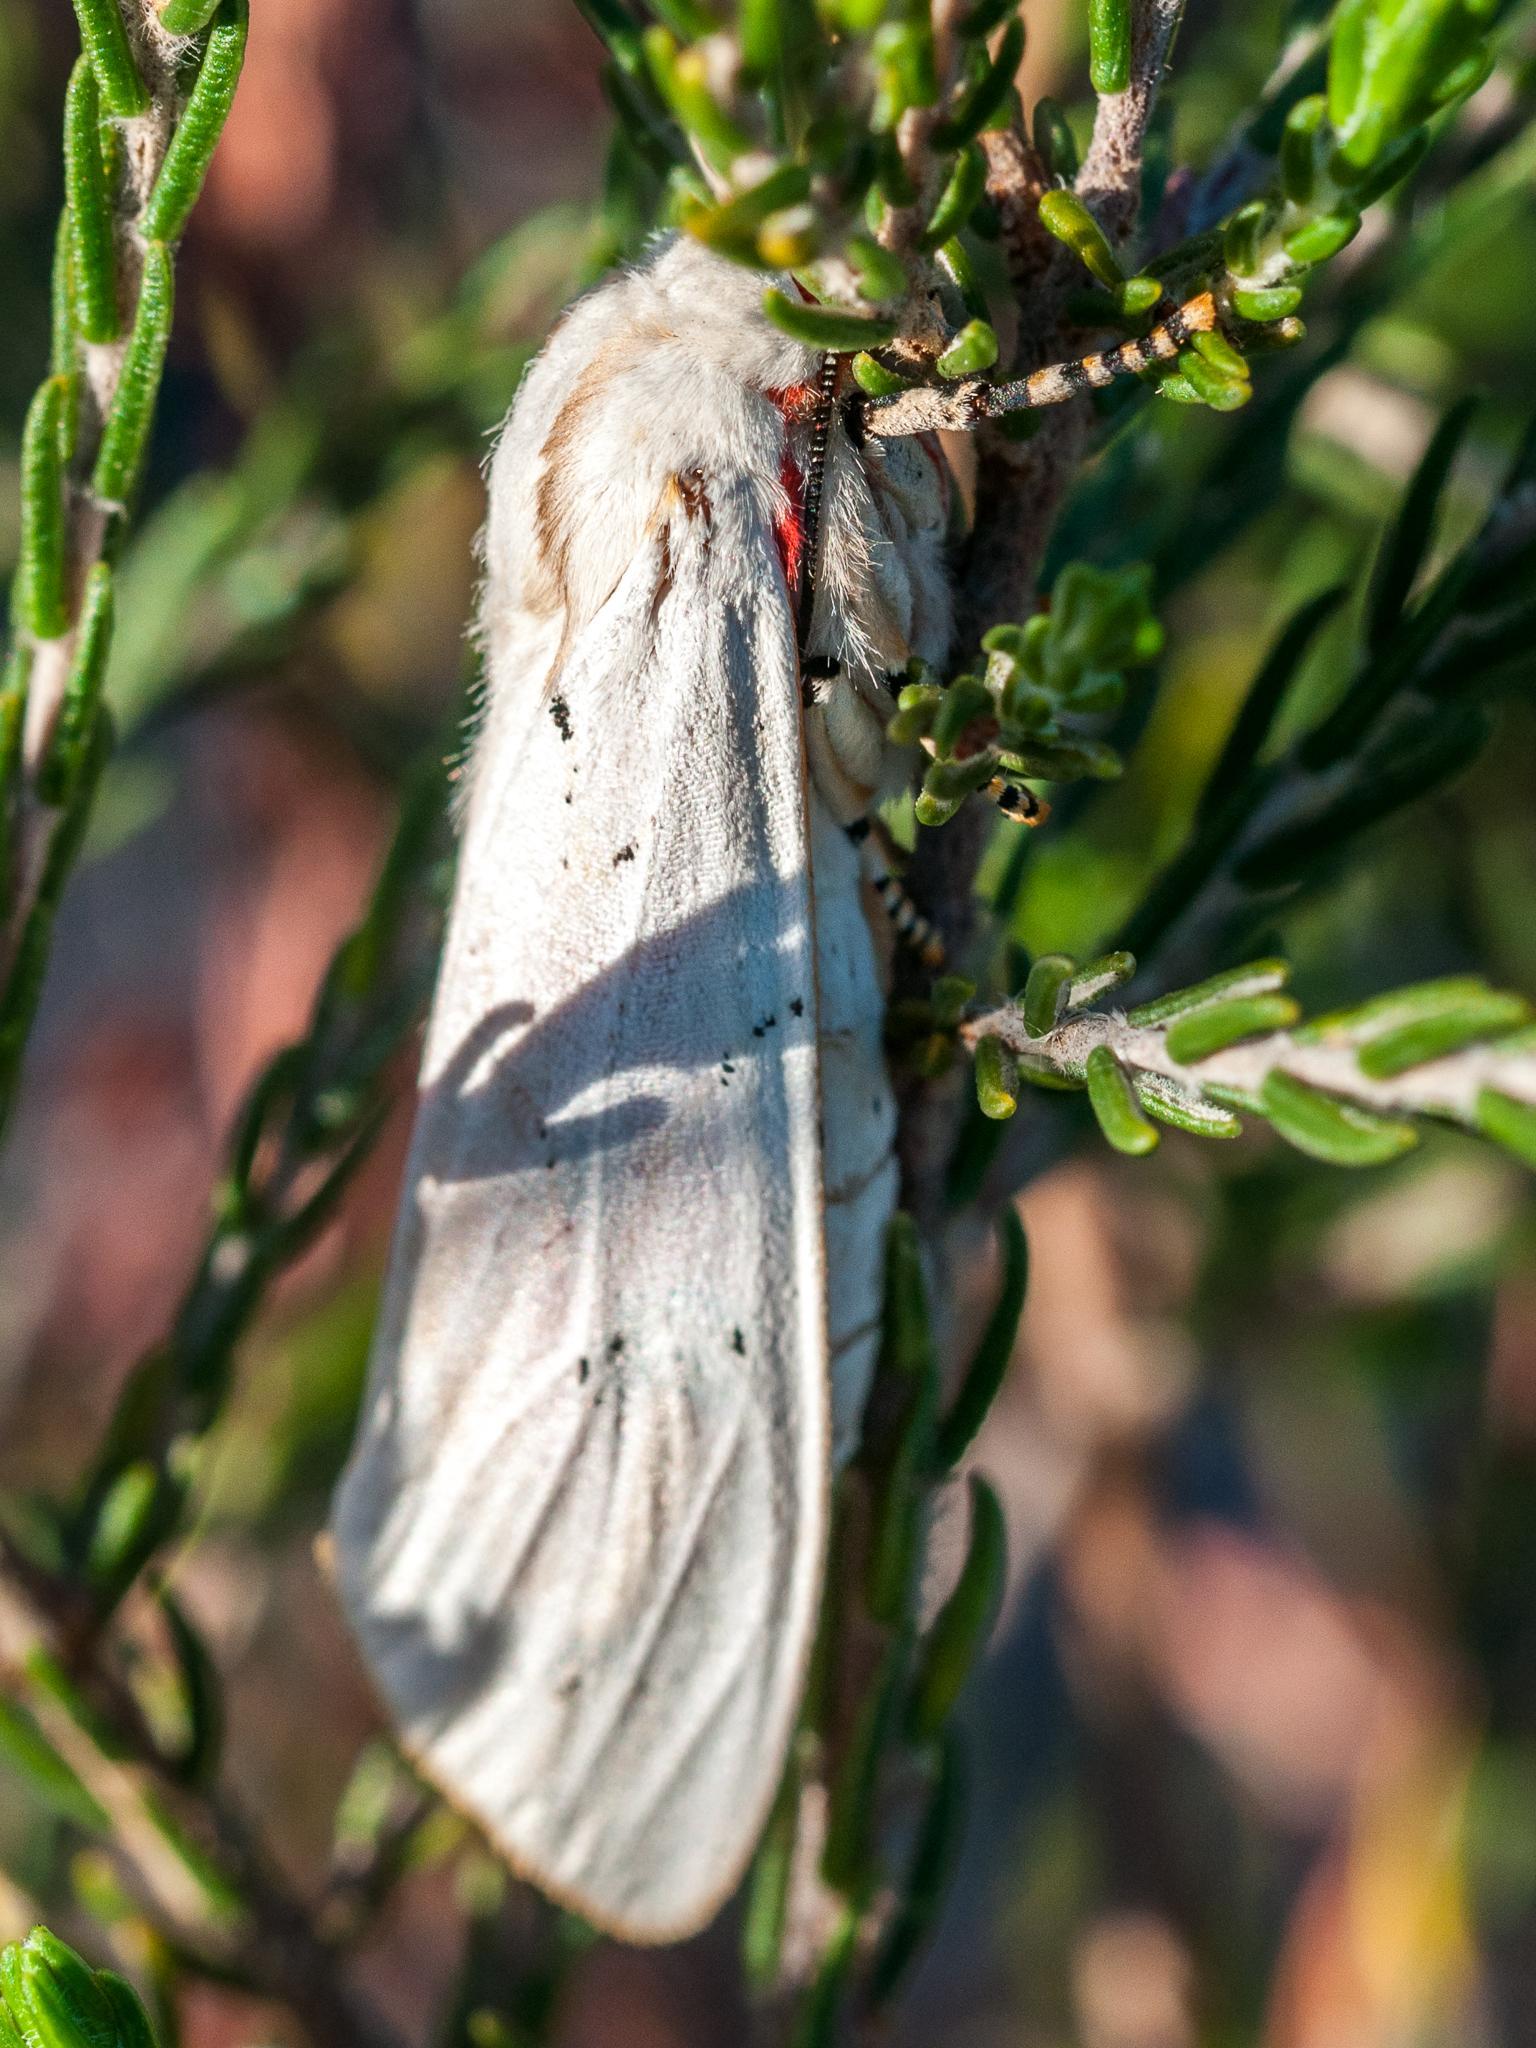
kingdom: Animalia
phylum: Arthropoda
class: Insecta
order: Lepidoptera
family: Erebidae
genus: Rhodogastria
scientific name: Rhodogastria amasis
